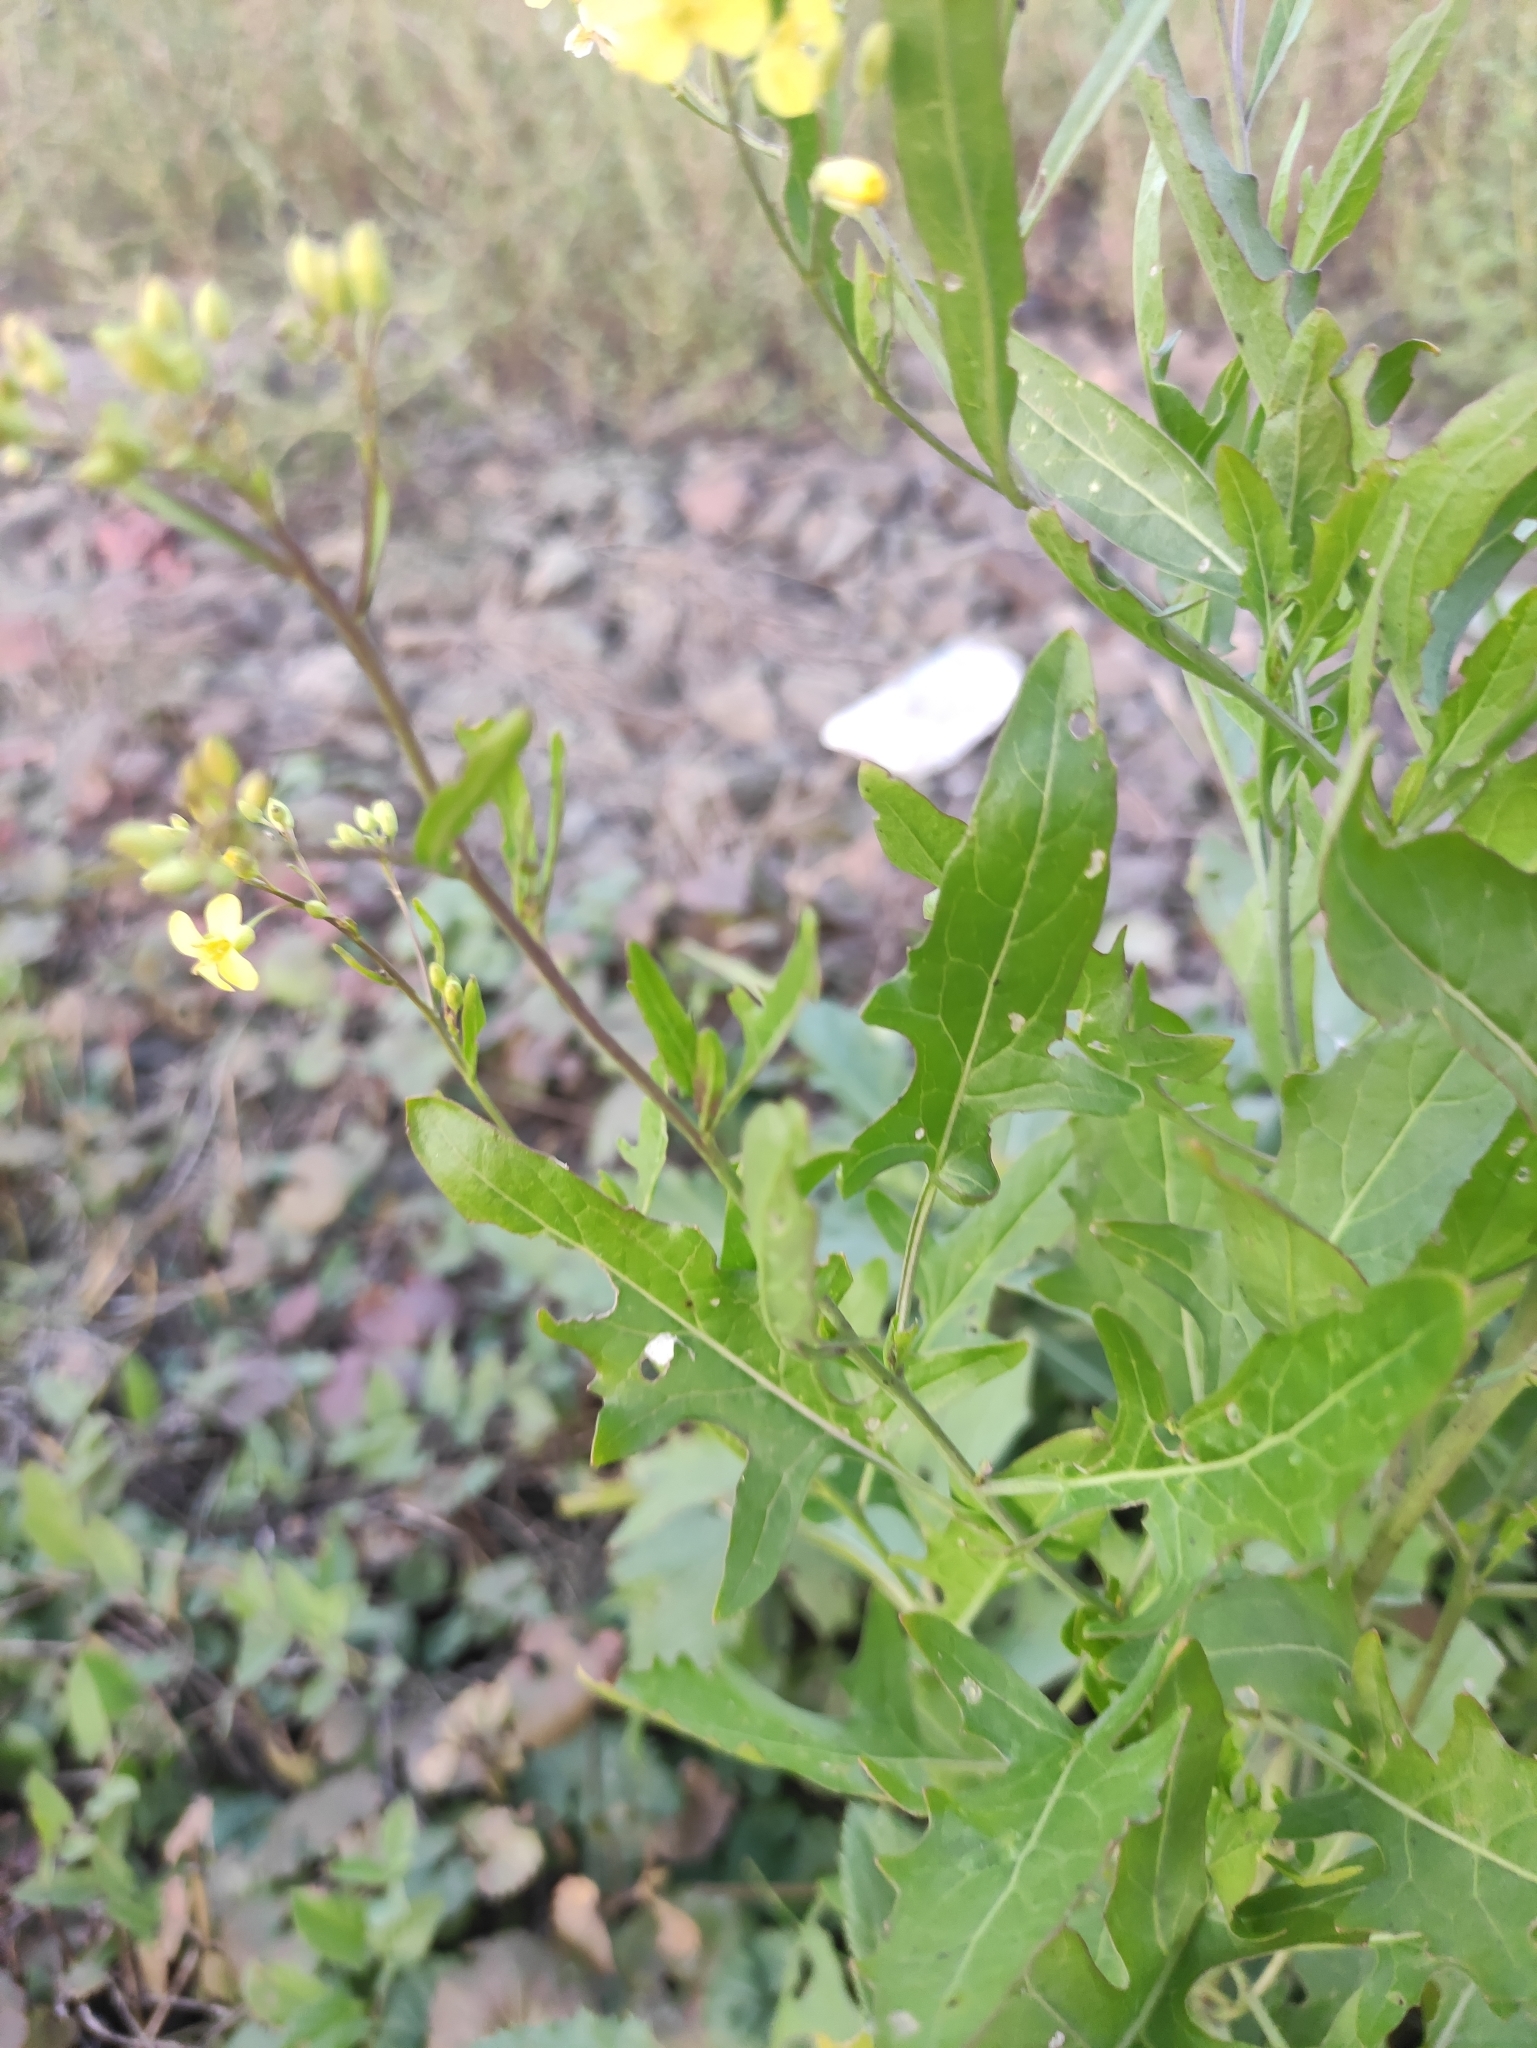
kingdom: Plantae
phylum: Tracheophyta
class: Magnoliopsida
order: Brassicales
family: Brassicaceae
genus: Sisymbrium
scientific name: Sisymbrium volgense
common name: Russian mustard
